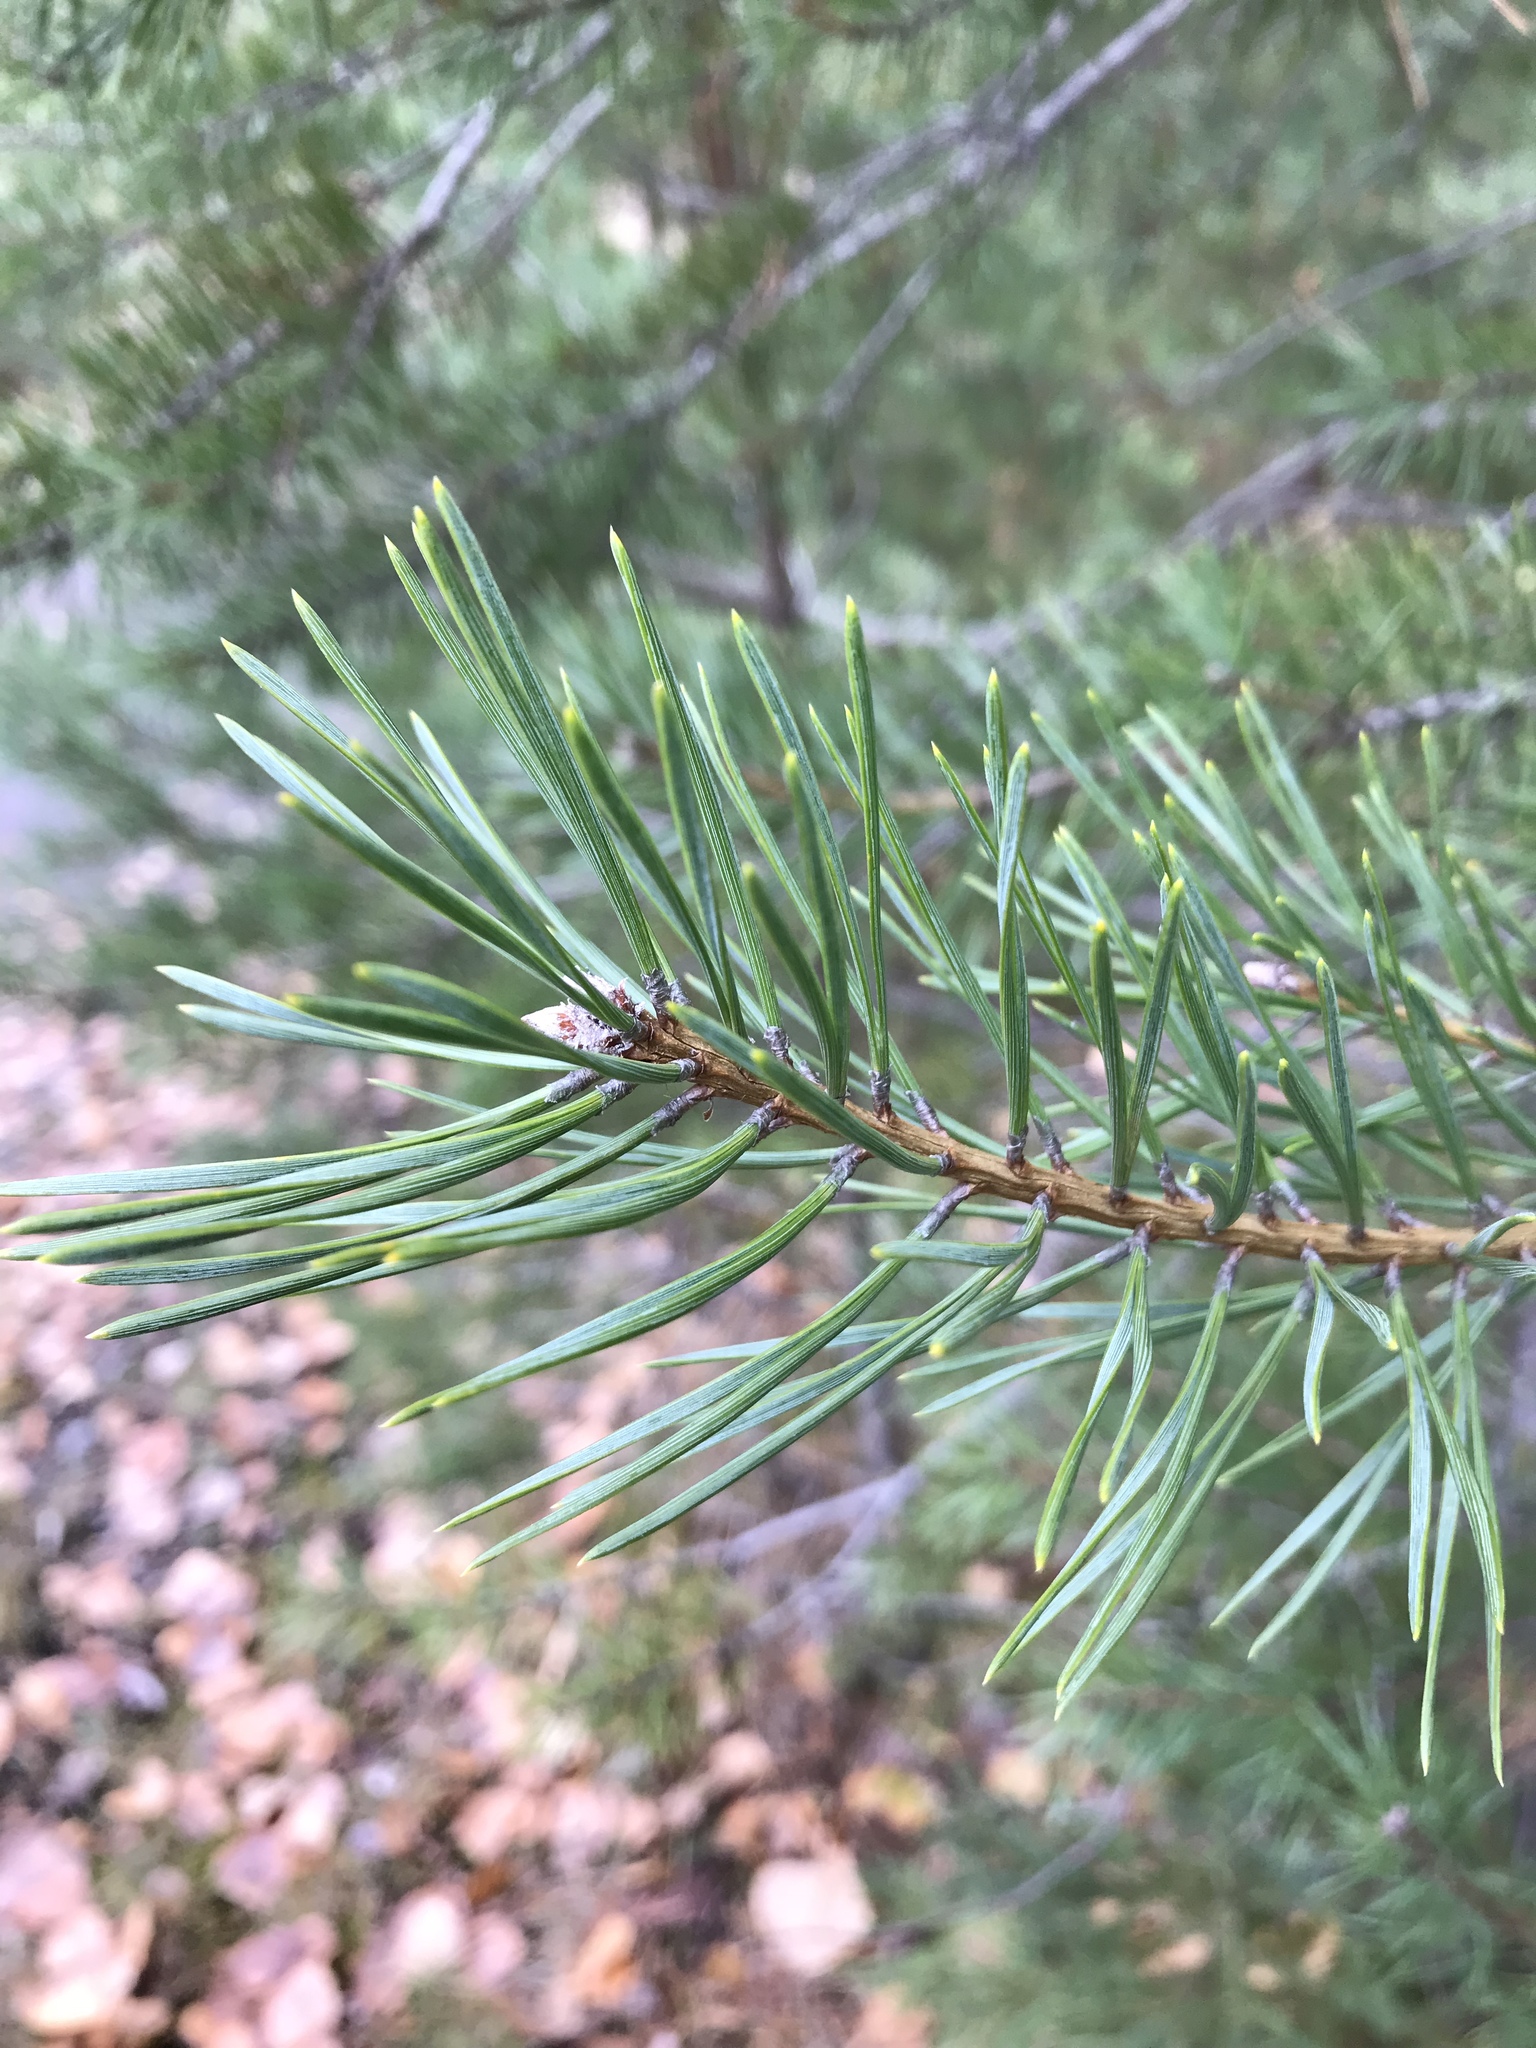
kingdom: Plantae
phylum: Tracheophyta
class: Pinopsida
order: Pinales
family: Pinaceae
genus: Pinus
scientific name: Pinus sylvestris
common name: Scots pine
